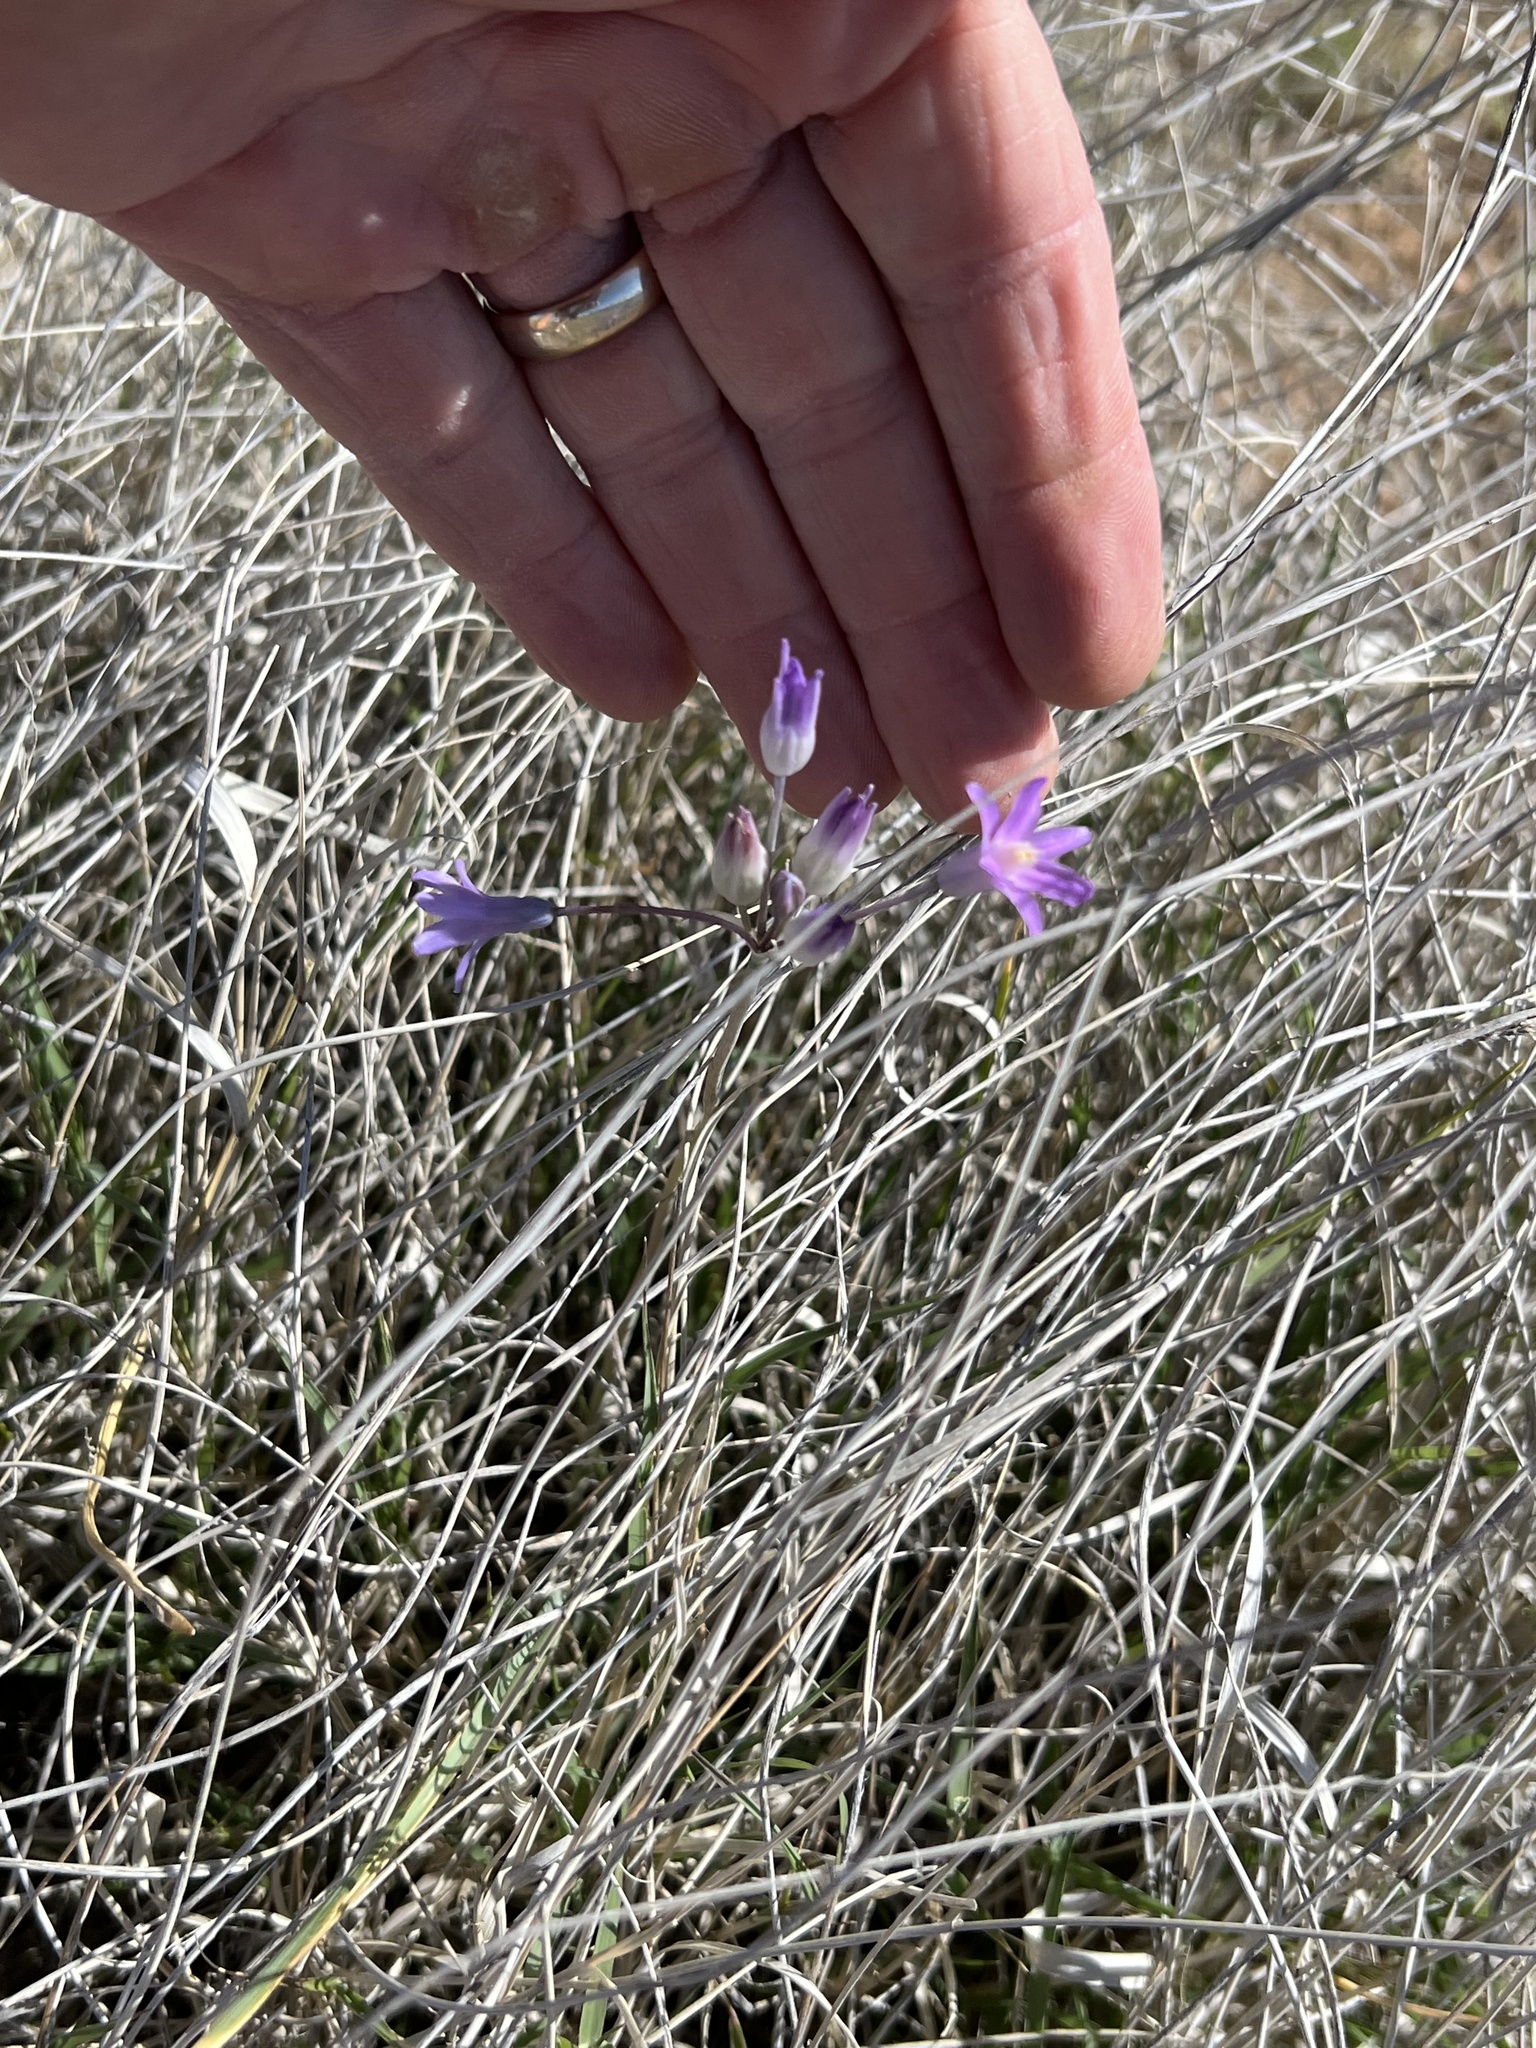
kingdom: Plantae
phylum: Tracheophyta
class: Liliopsida
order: Asparagales
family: Asparagaceae
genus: Dipterostemon
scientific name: Dipterostemon capitatus
